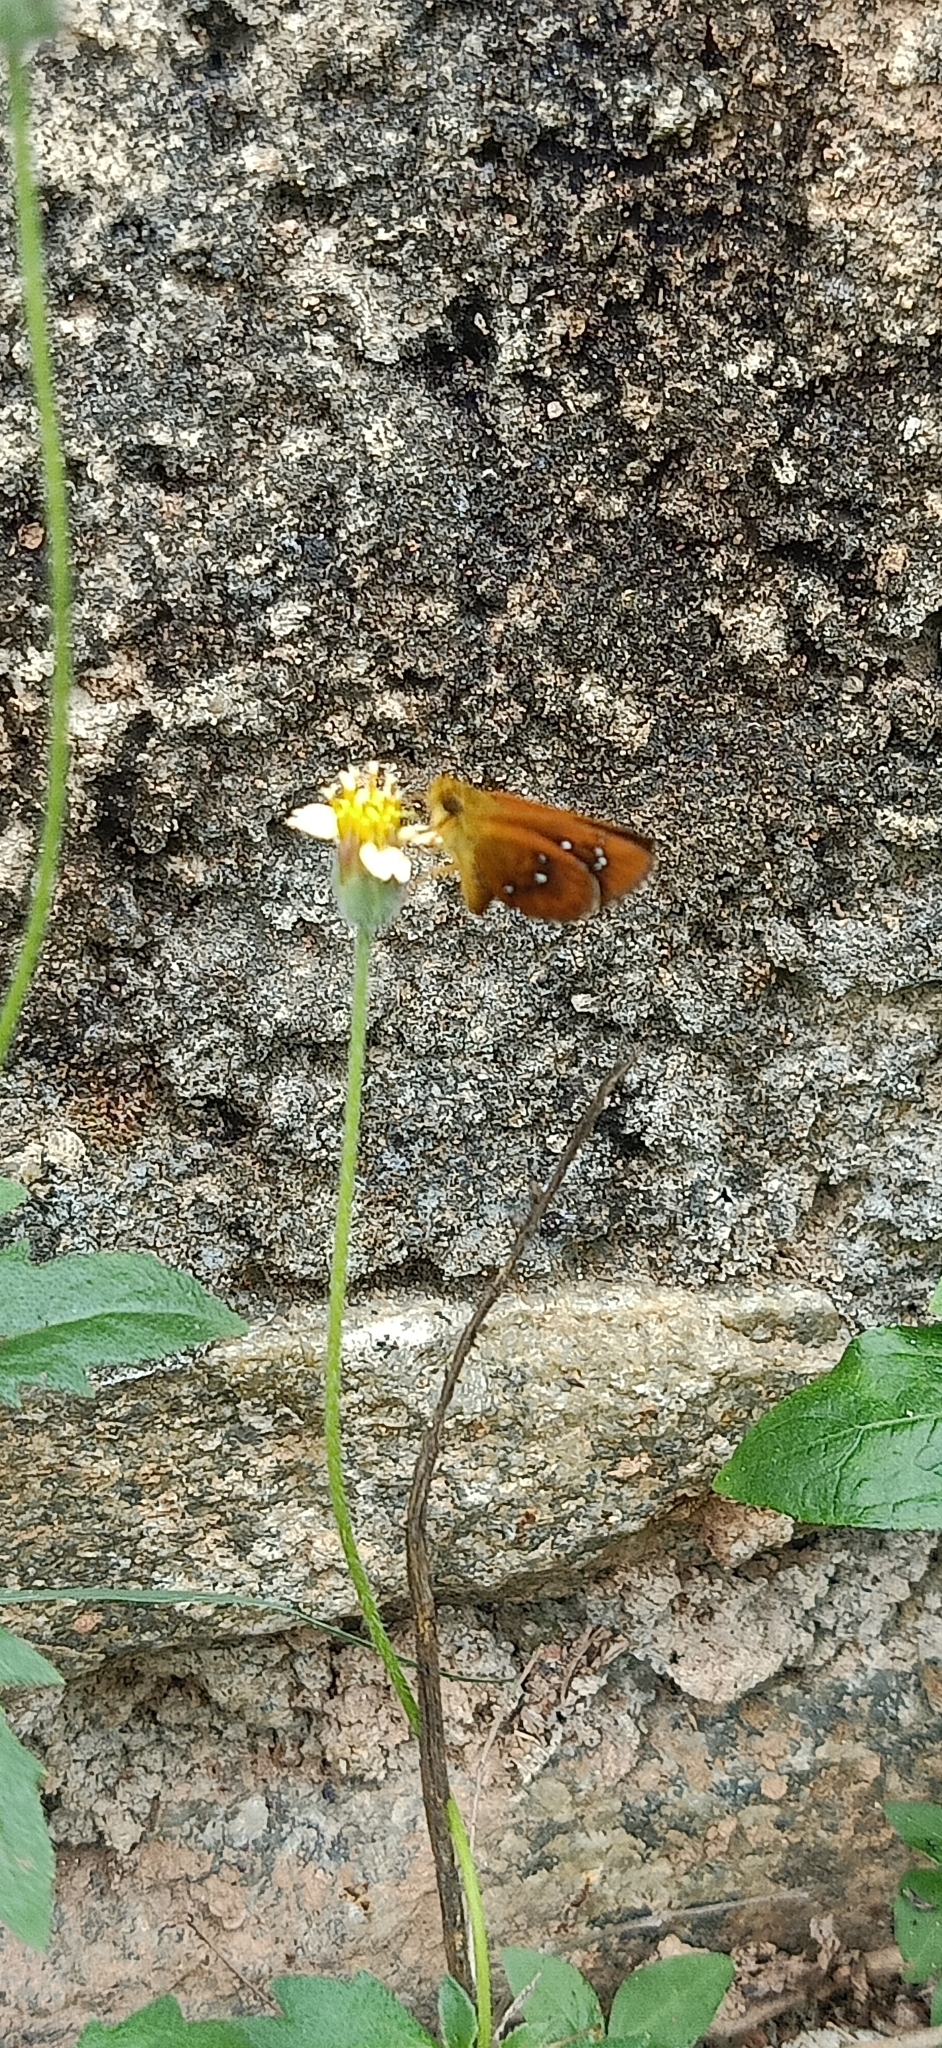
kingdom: Animalia
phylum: Arthropoda
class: Insecta
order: Lepidoptera
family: Hesperiidae
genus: Iambrix
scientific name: Iambrix salsala
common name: Chestnut bob
